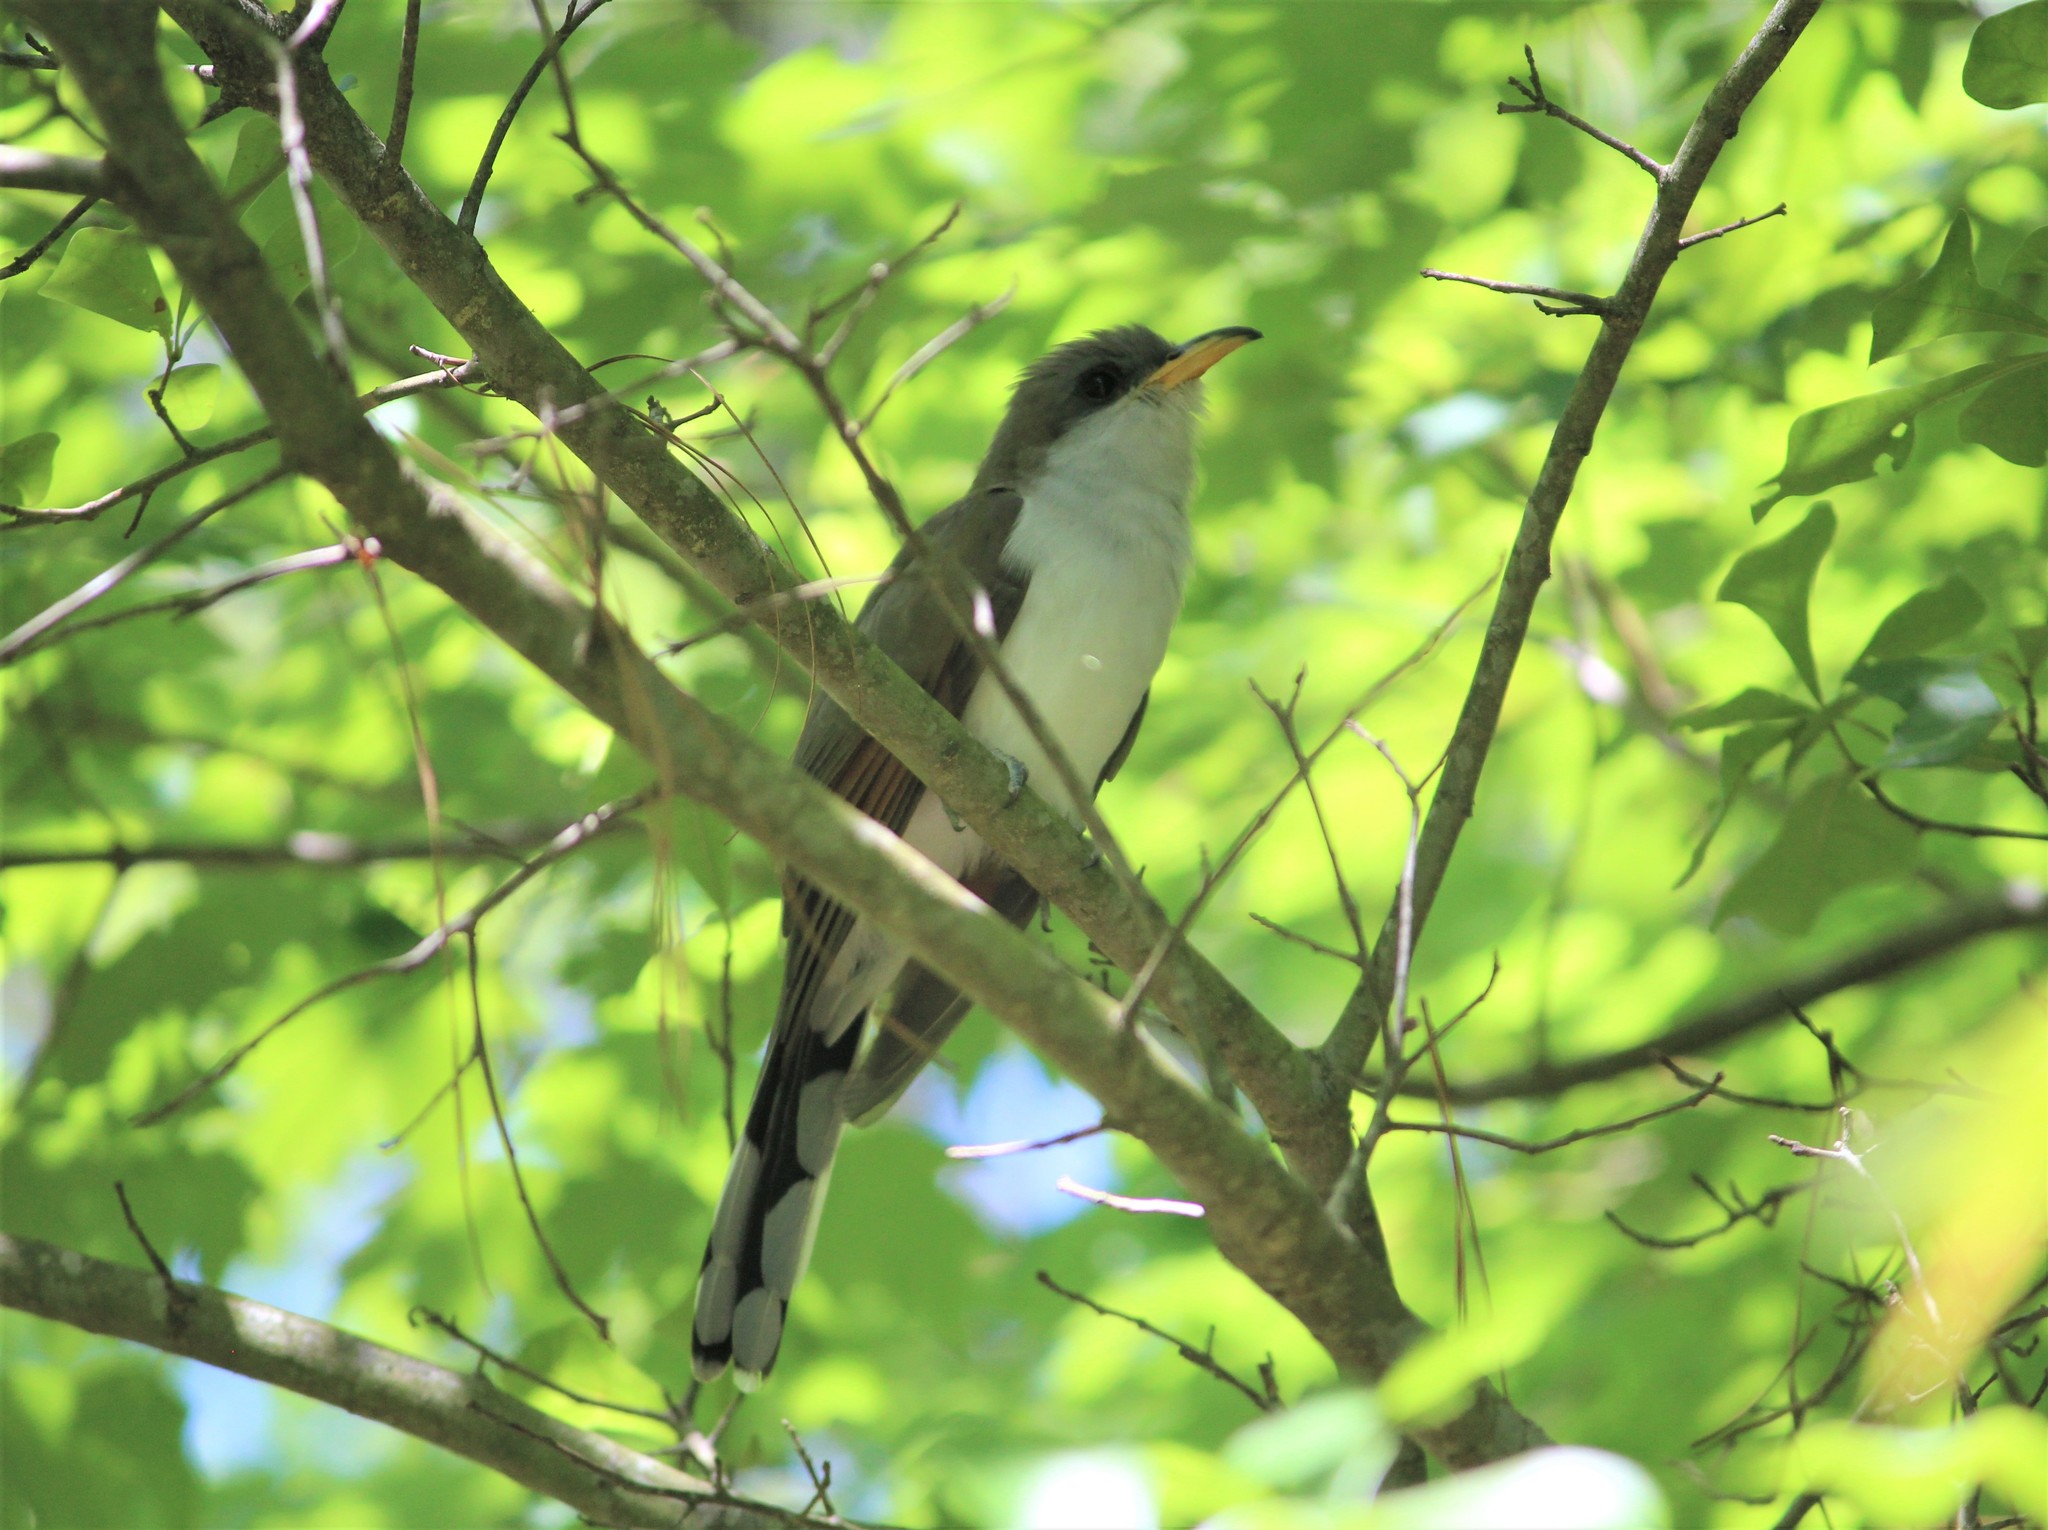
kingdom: Animalia
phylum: Chordata
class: Aves
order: Cuculiformes
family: Cuculidae
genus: Coccyzus
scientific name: Coccyzus americanus
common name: Yellow-billed cuckoo
